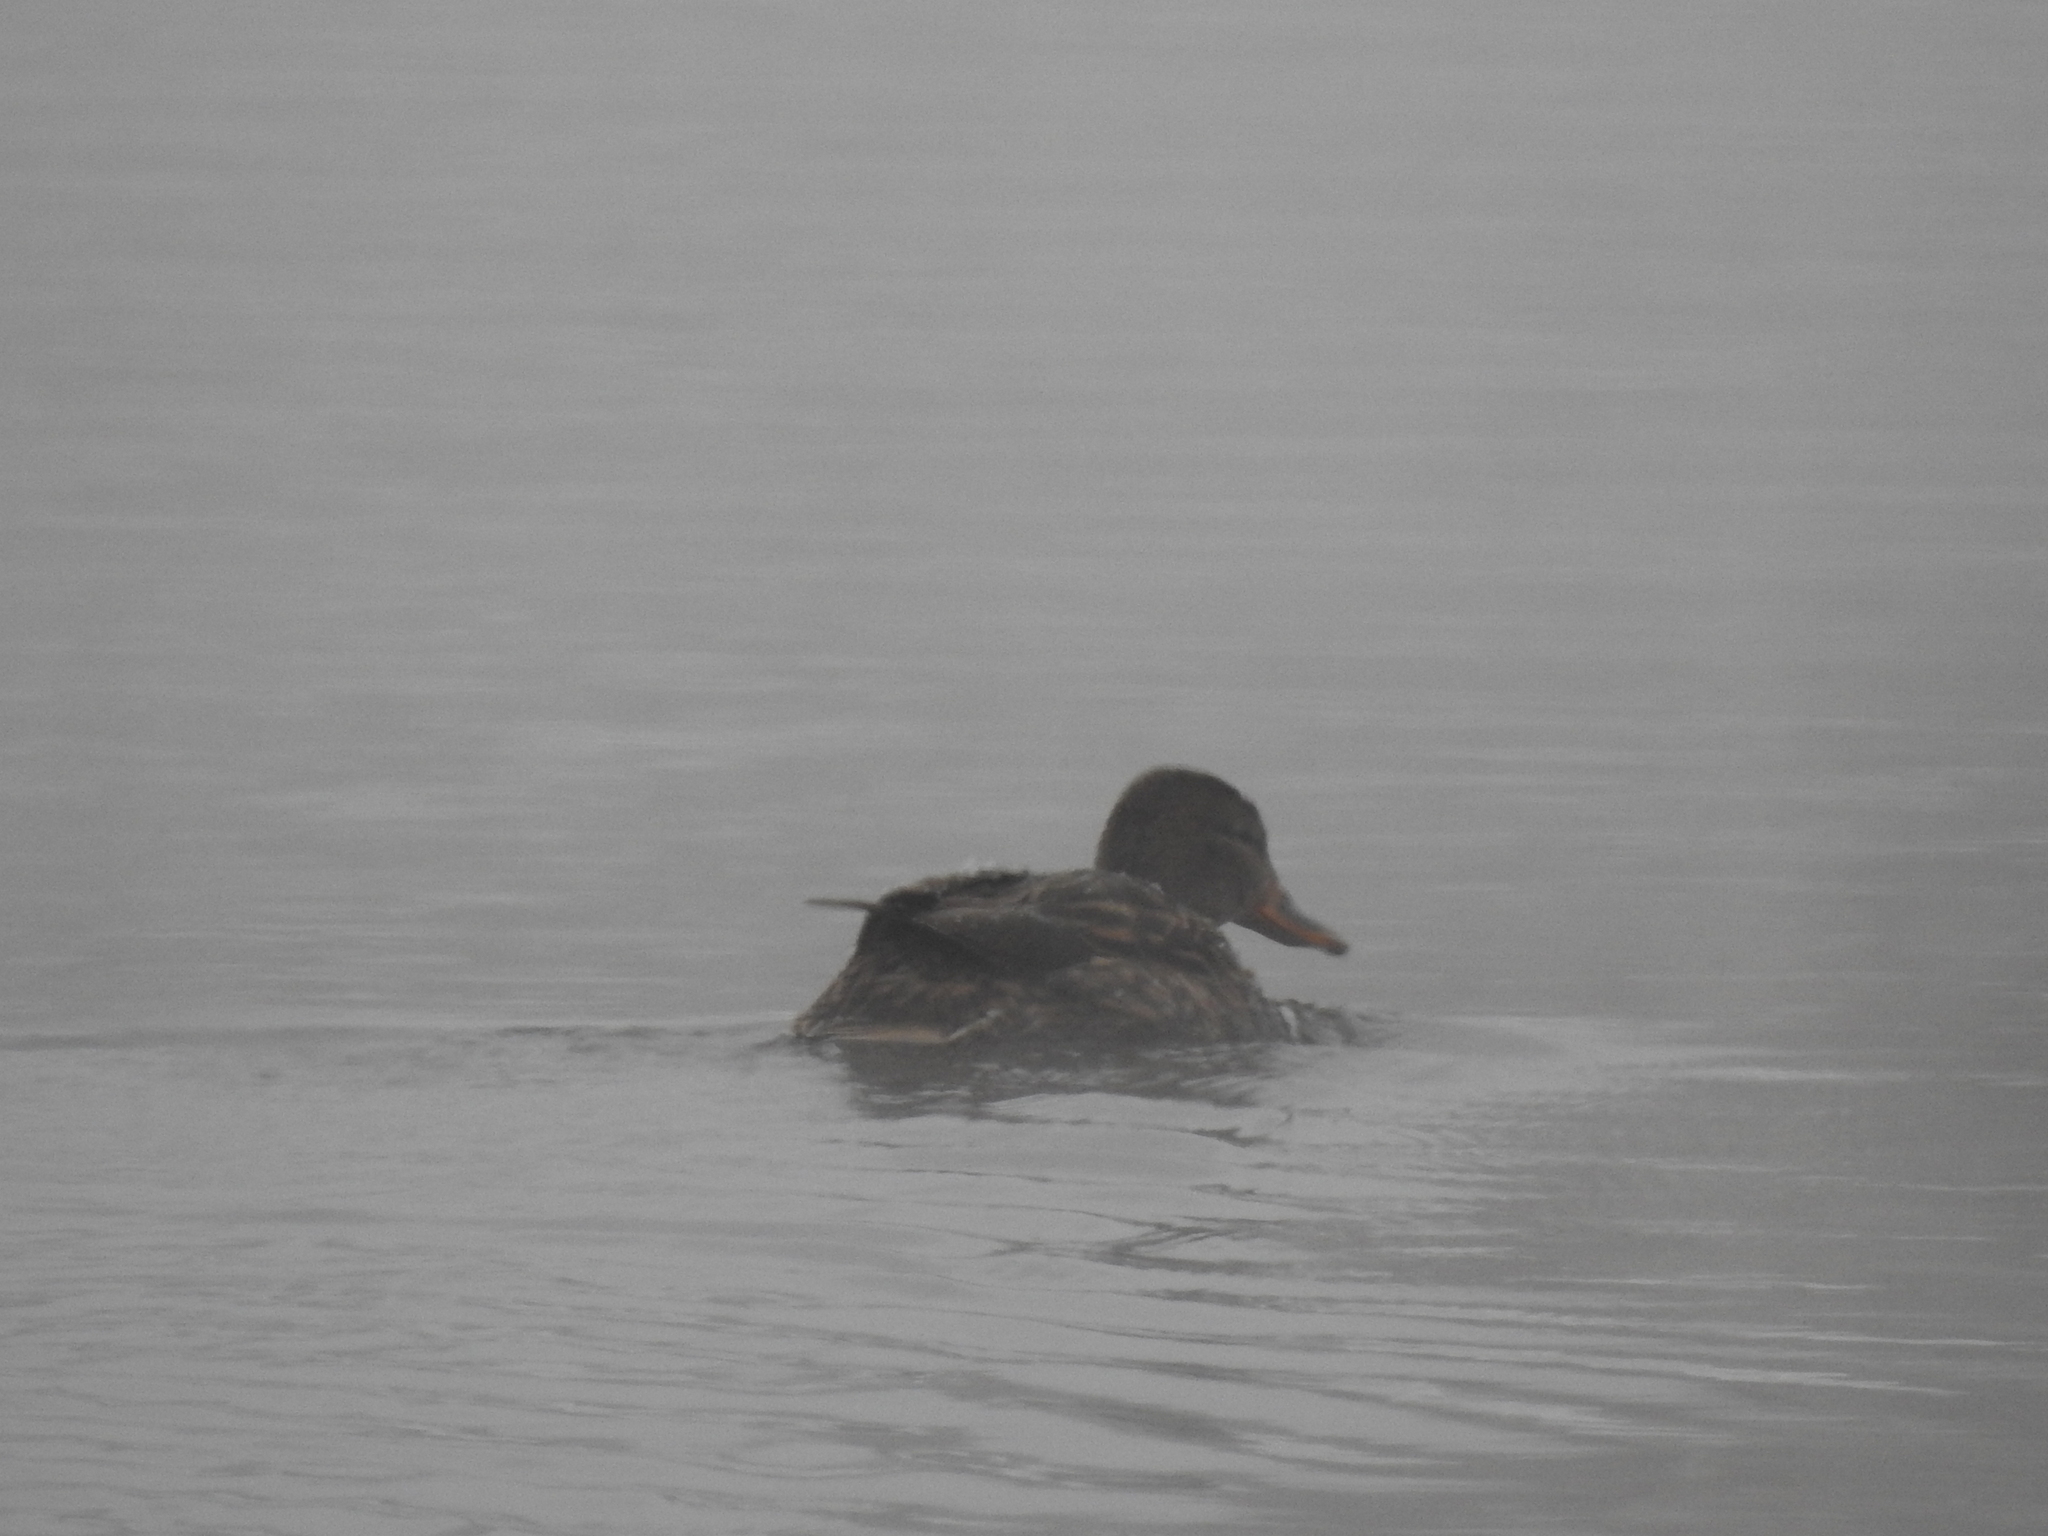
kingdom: Animalia
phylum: Chordata
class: Aves
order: Anseriformes
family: Anatidae
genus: Anas
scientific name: Anas platyrhynchos
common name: Mallard
